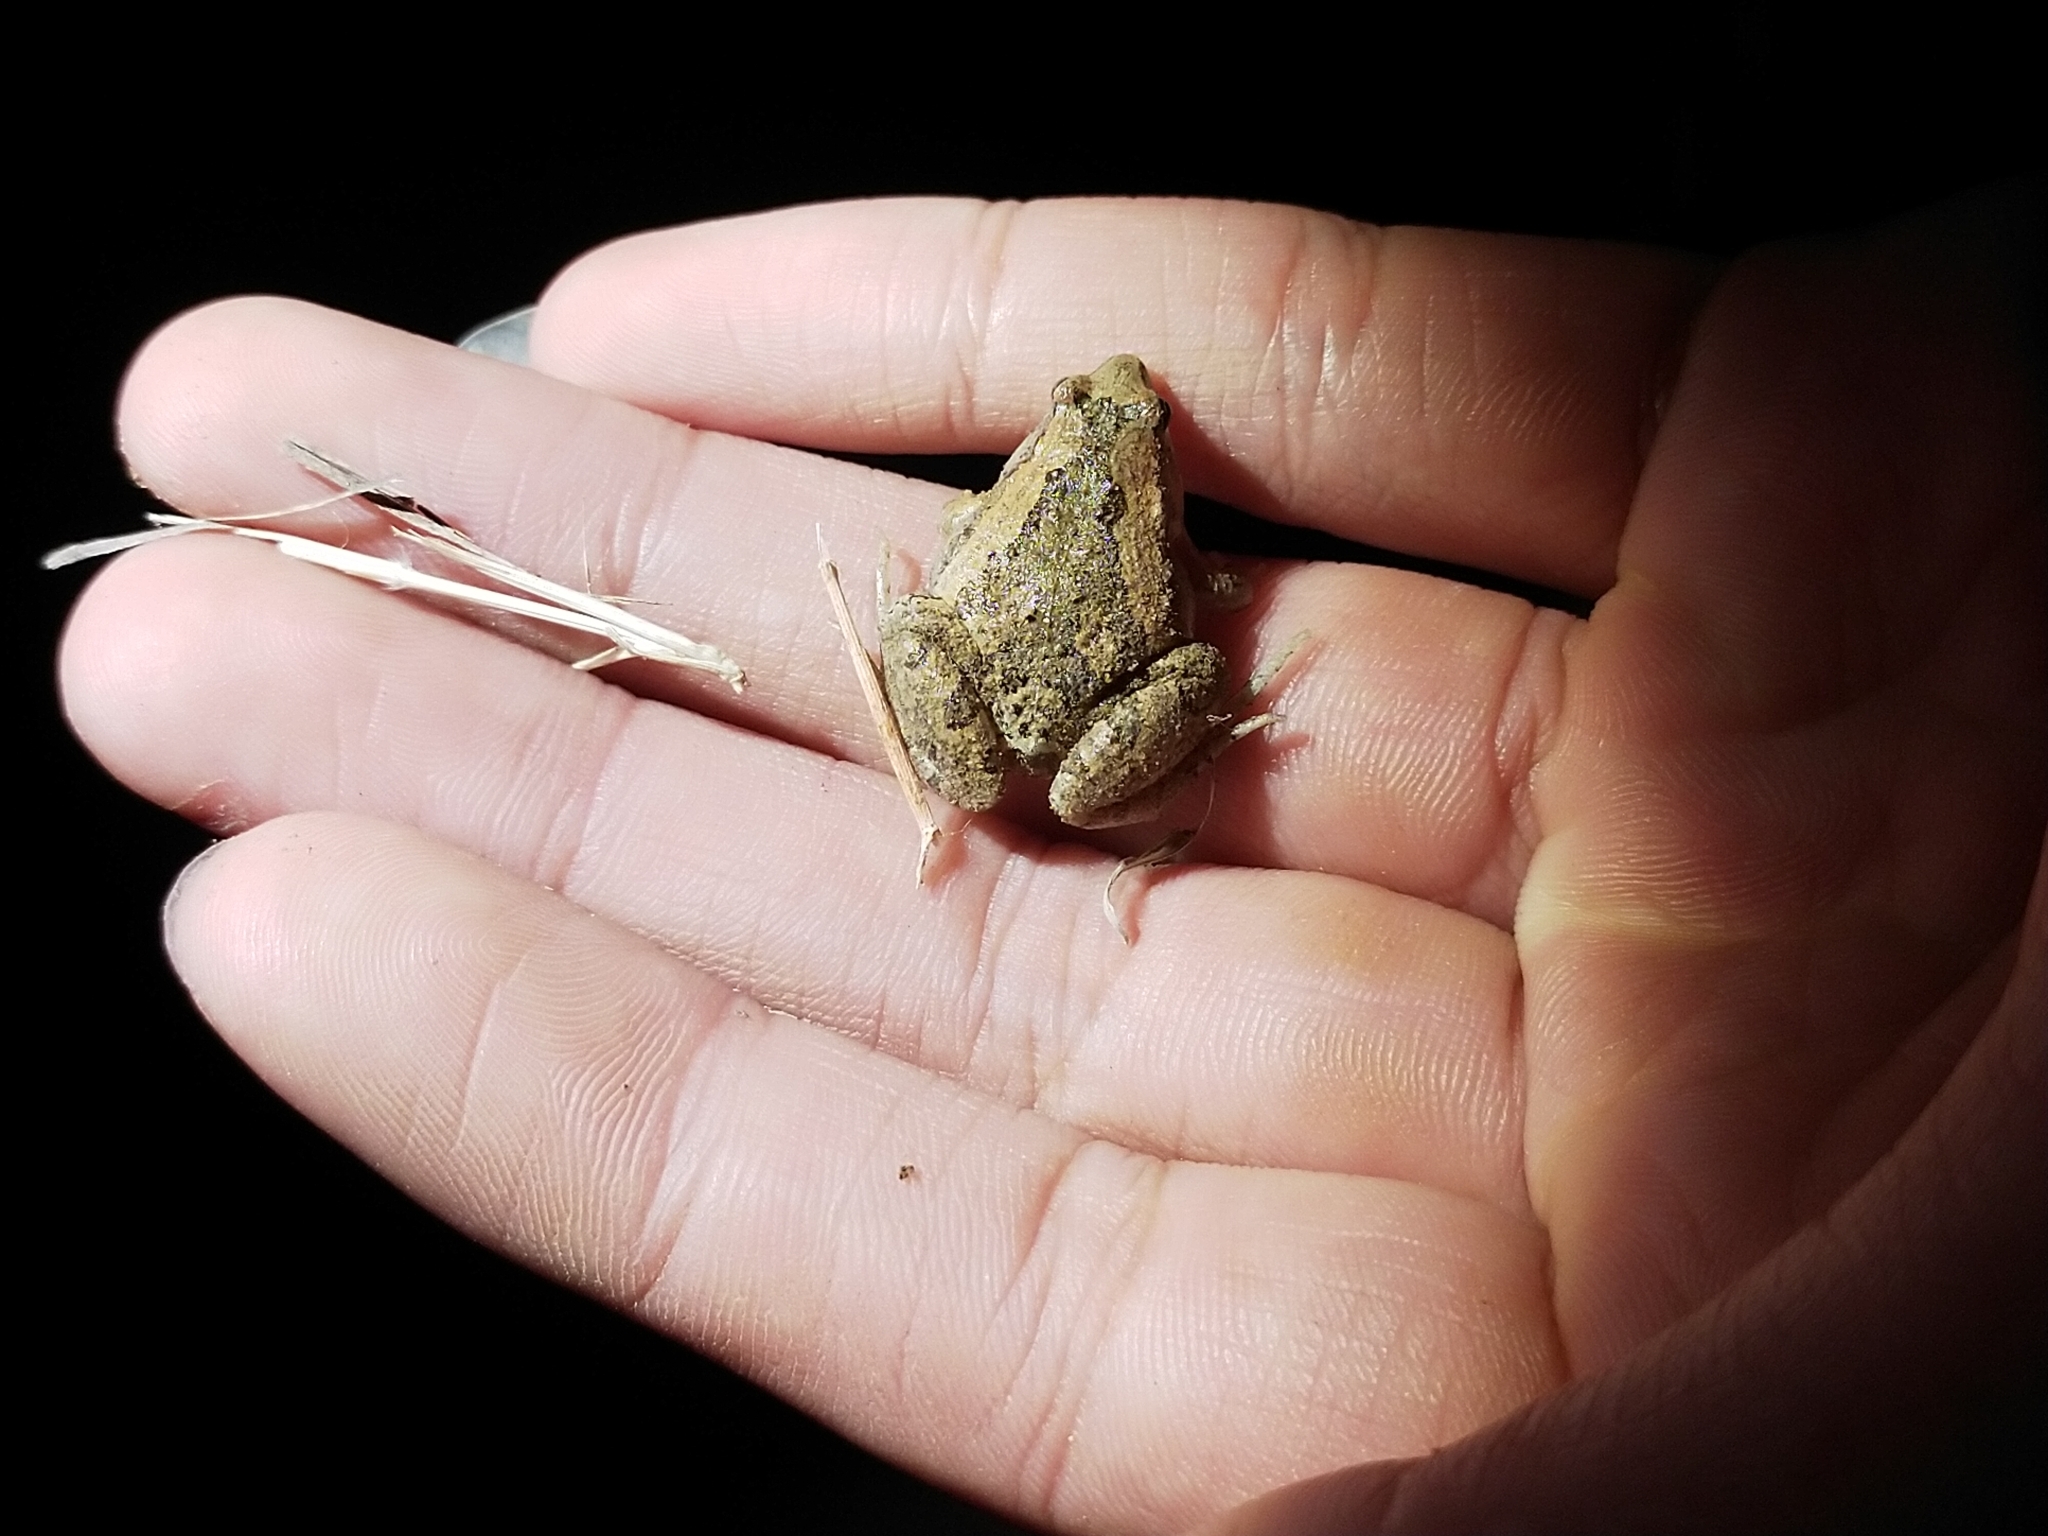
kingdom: Animalia
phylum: Chordata
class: Amphibia
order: Anura
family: Microhylidae
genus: Microhyla
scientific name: Microhyla fissipes
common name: Ornate narrow-mouthed frog
